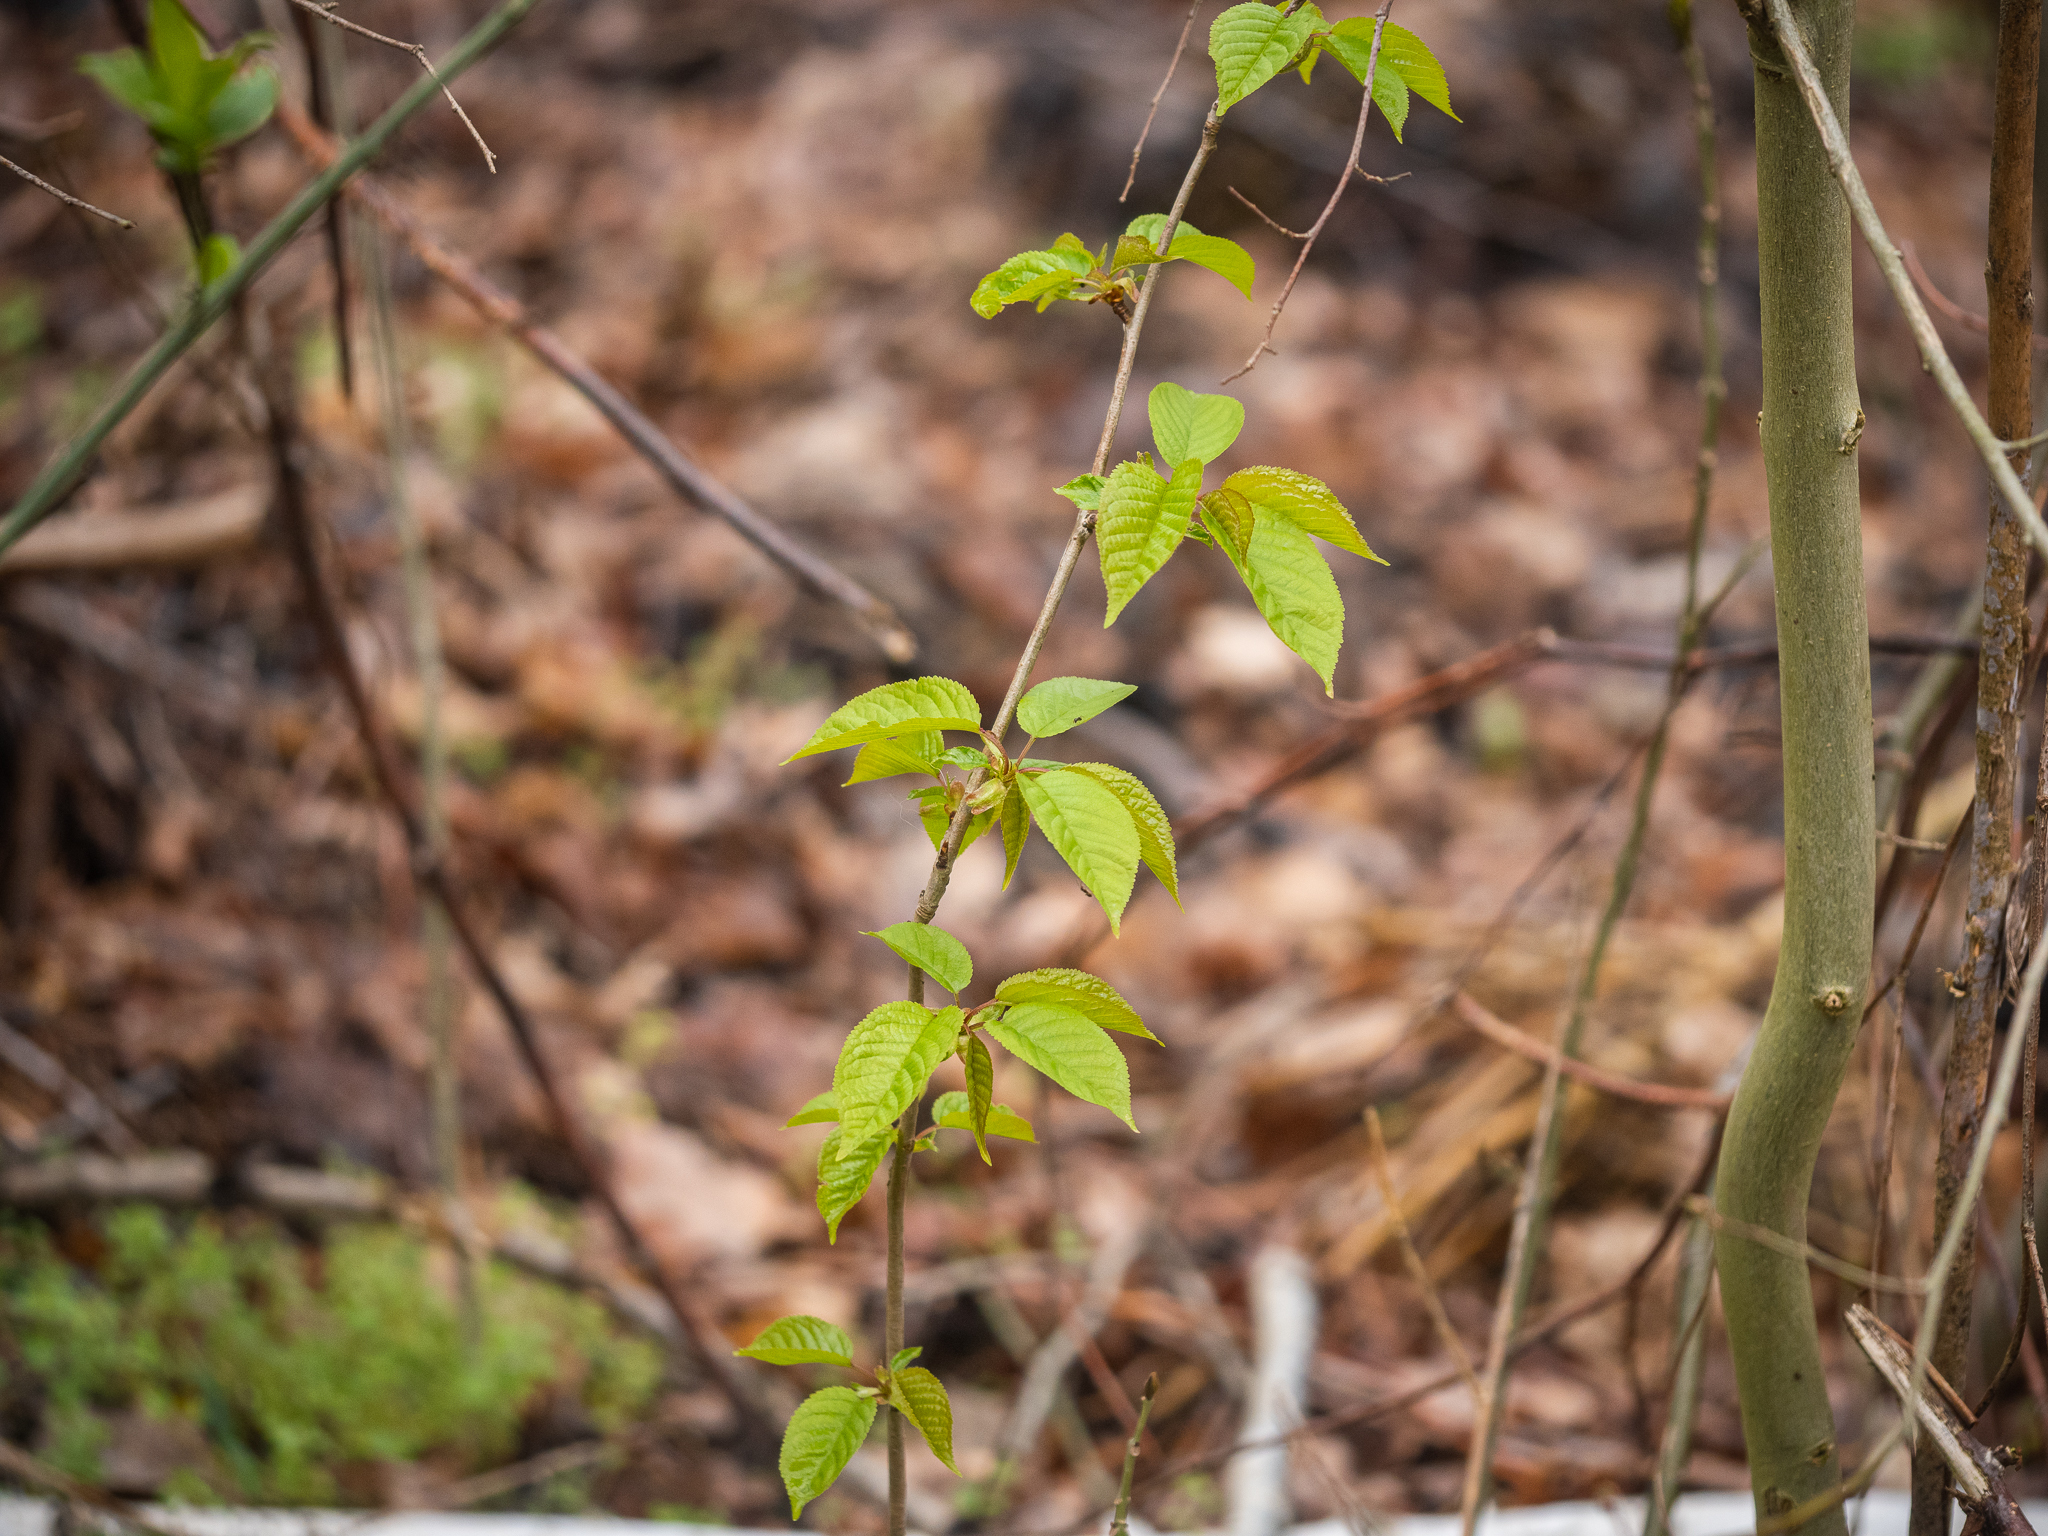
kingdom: Plantae
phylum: Tracheophyta
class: Magnoliopsida
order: Rosales
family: Rosaceae
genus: Prunus
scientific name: Prunus avium
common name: Sweet cherry
